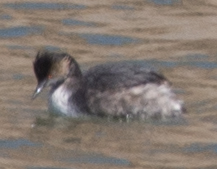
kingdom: Animalia
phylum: Chordata
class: Aves
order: Podicipediformes
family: Podicipedidae
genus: Podiceps
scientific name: Podiceps nigricollis
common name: Black-necked grebe
